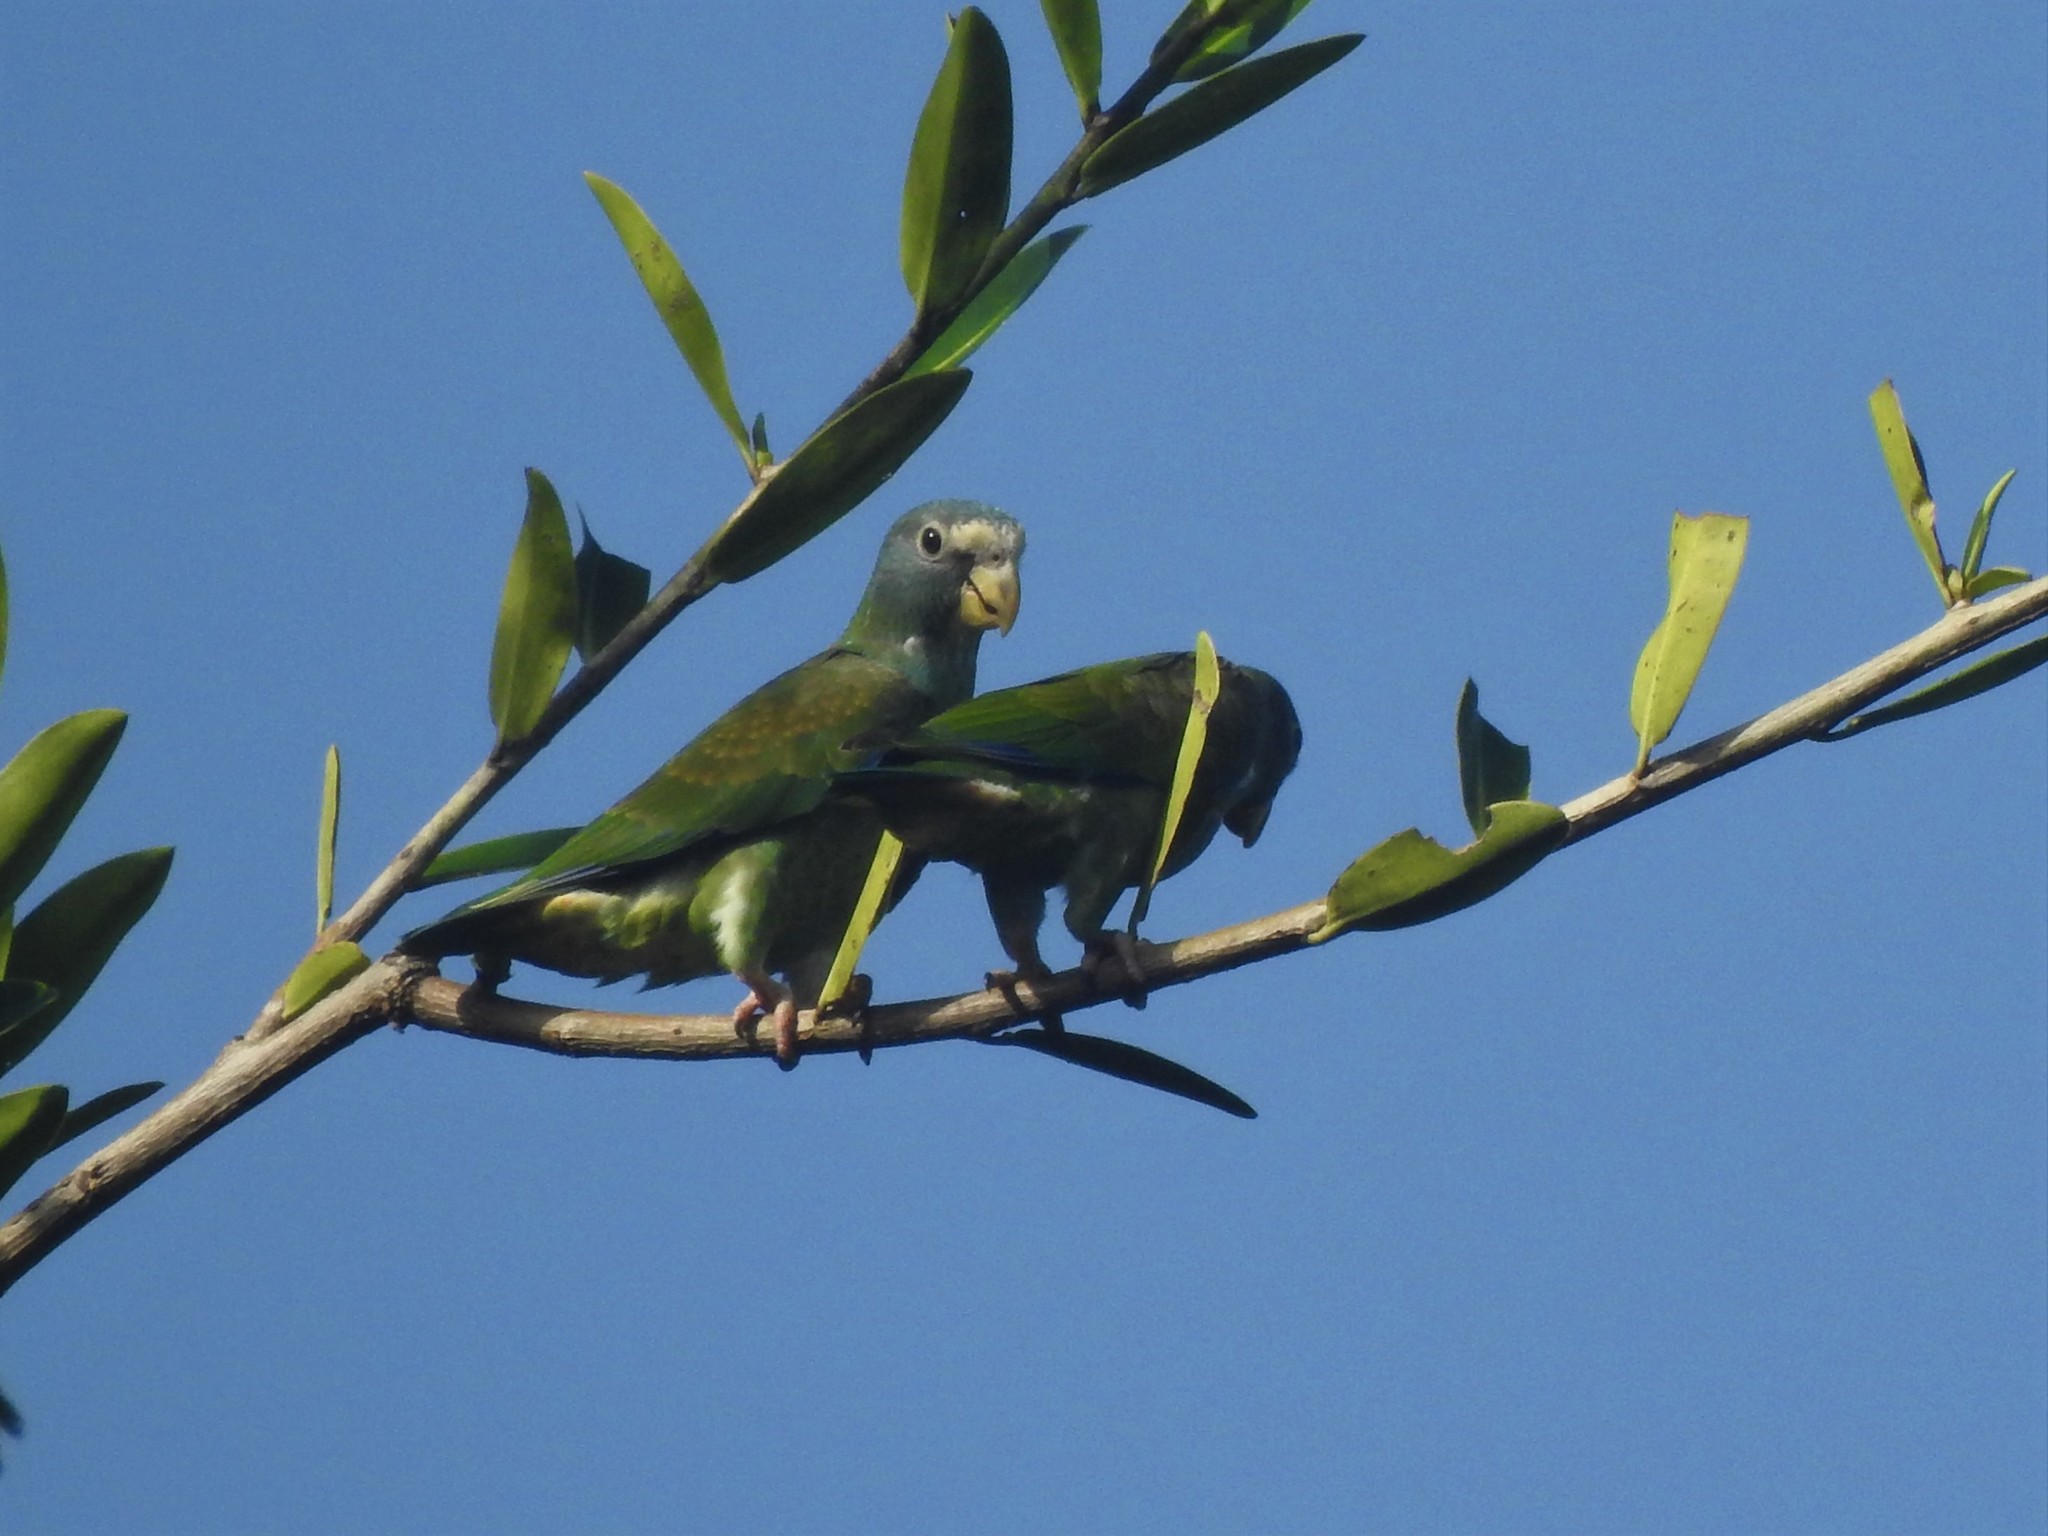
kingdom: Animalia
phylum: Chordata
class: Aves
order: Psittaciformes
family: Psittacidae
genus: Pionus
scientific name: Pionus senilis
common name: White-crowned parrot
